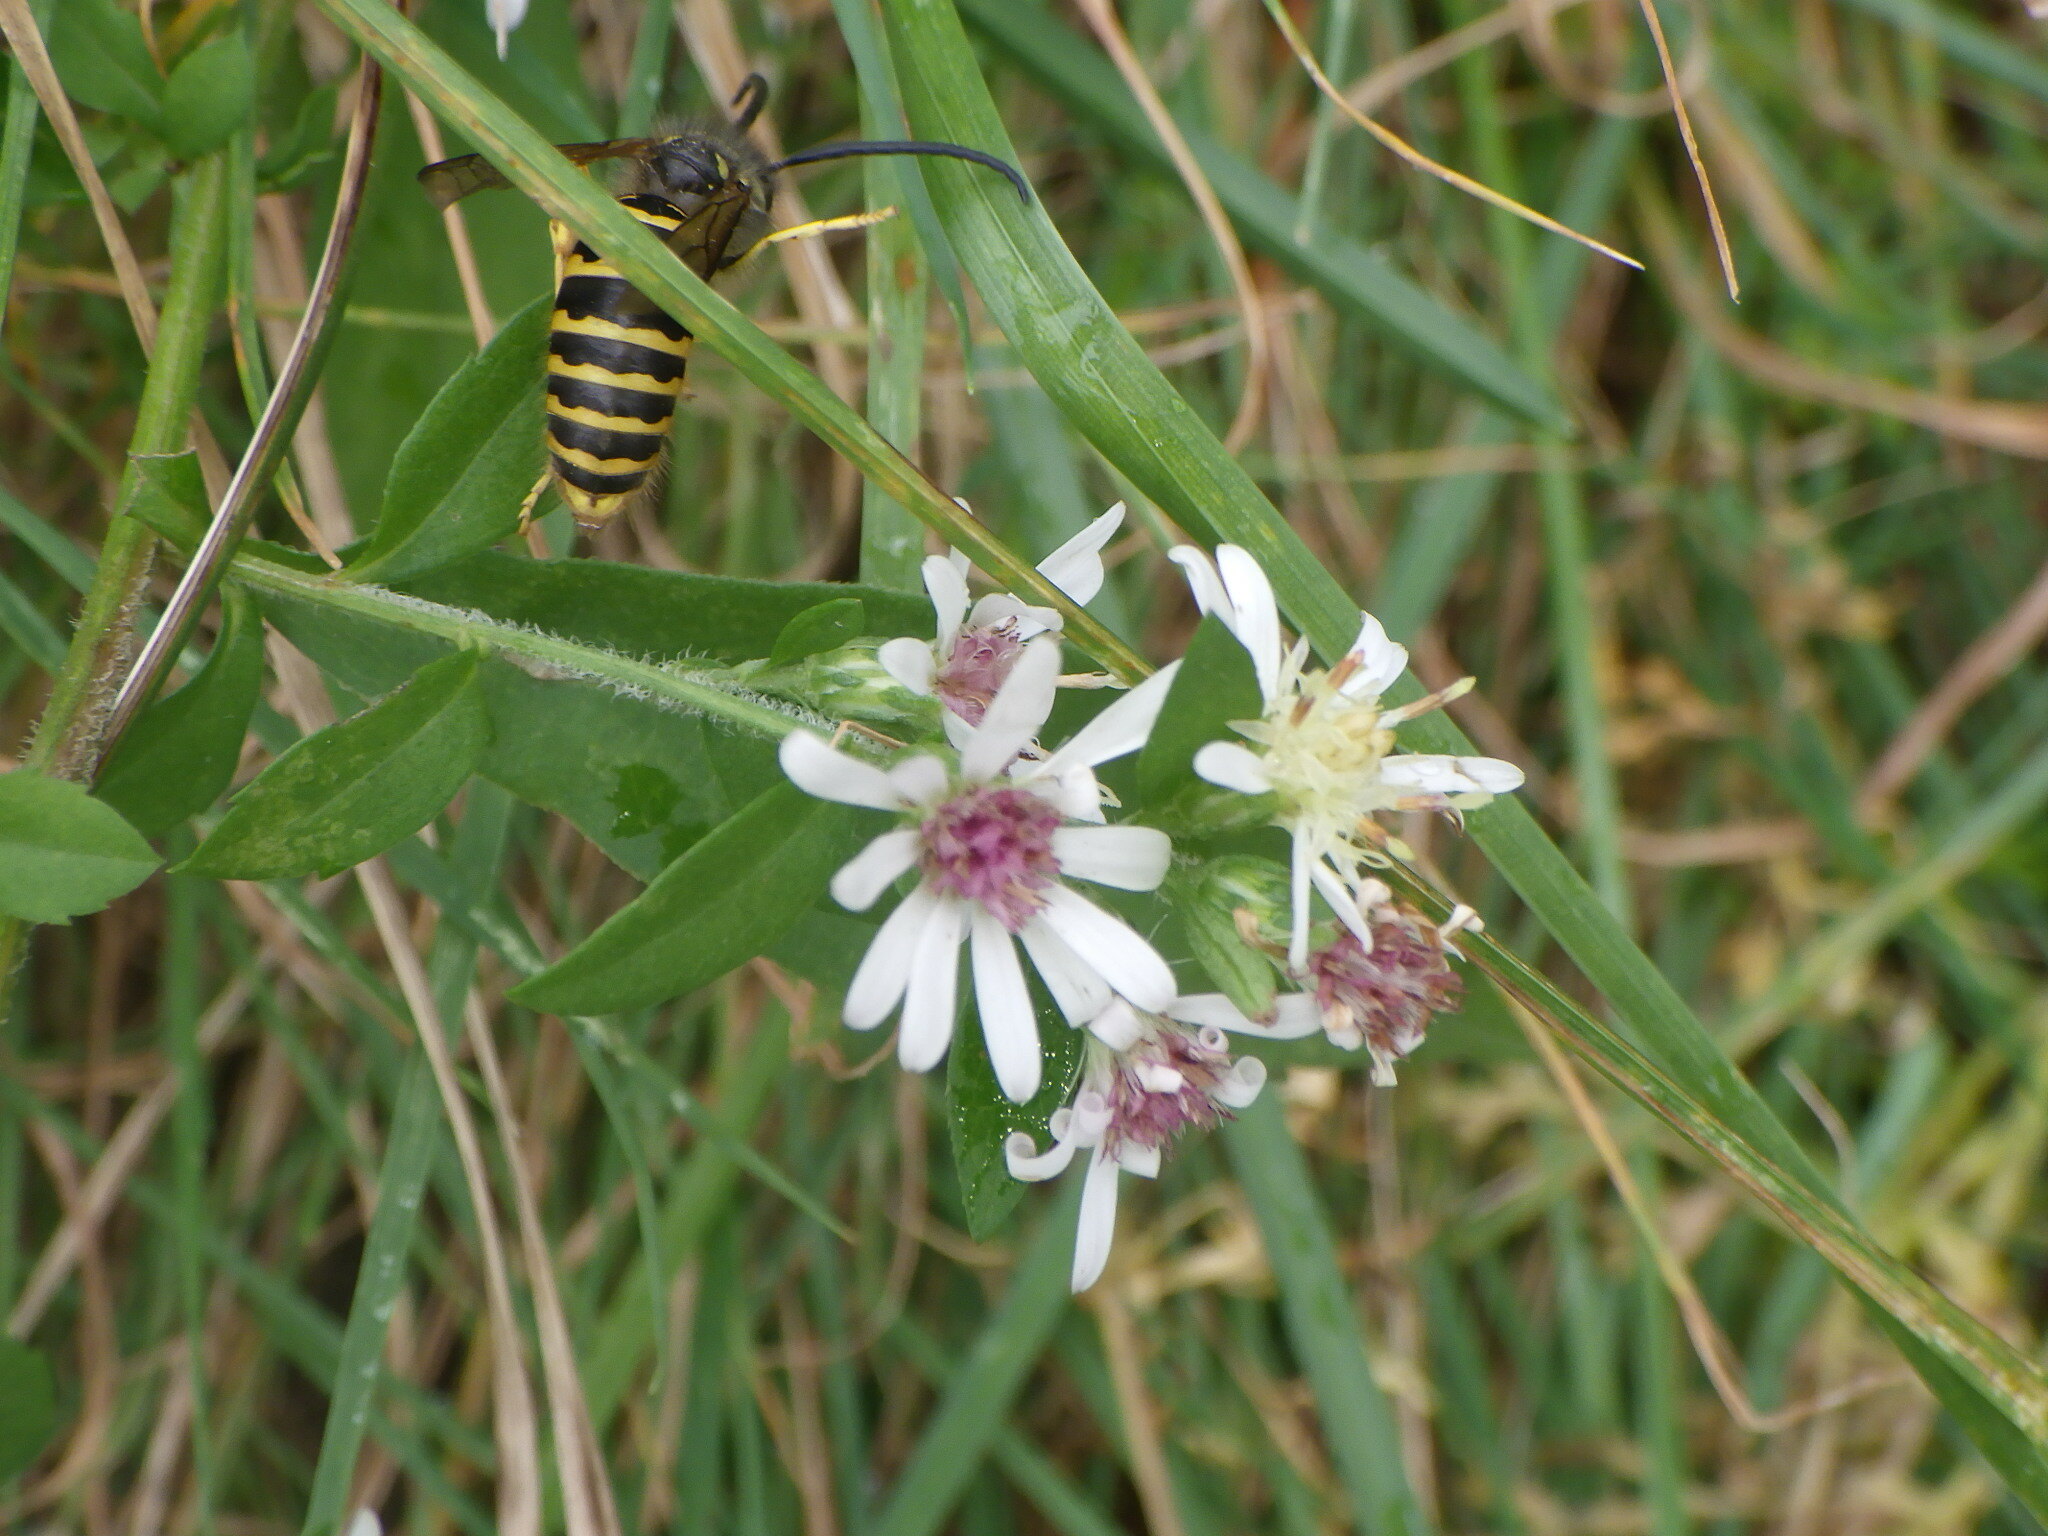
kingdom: Plantae
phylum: Tracheophyta
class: Magnoliopsida
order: Asterales
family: Asteraceae
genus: Symphyotrichum
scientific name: Symphyotrichum lateriflorum
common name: Calico aster
